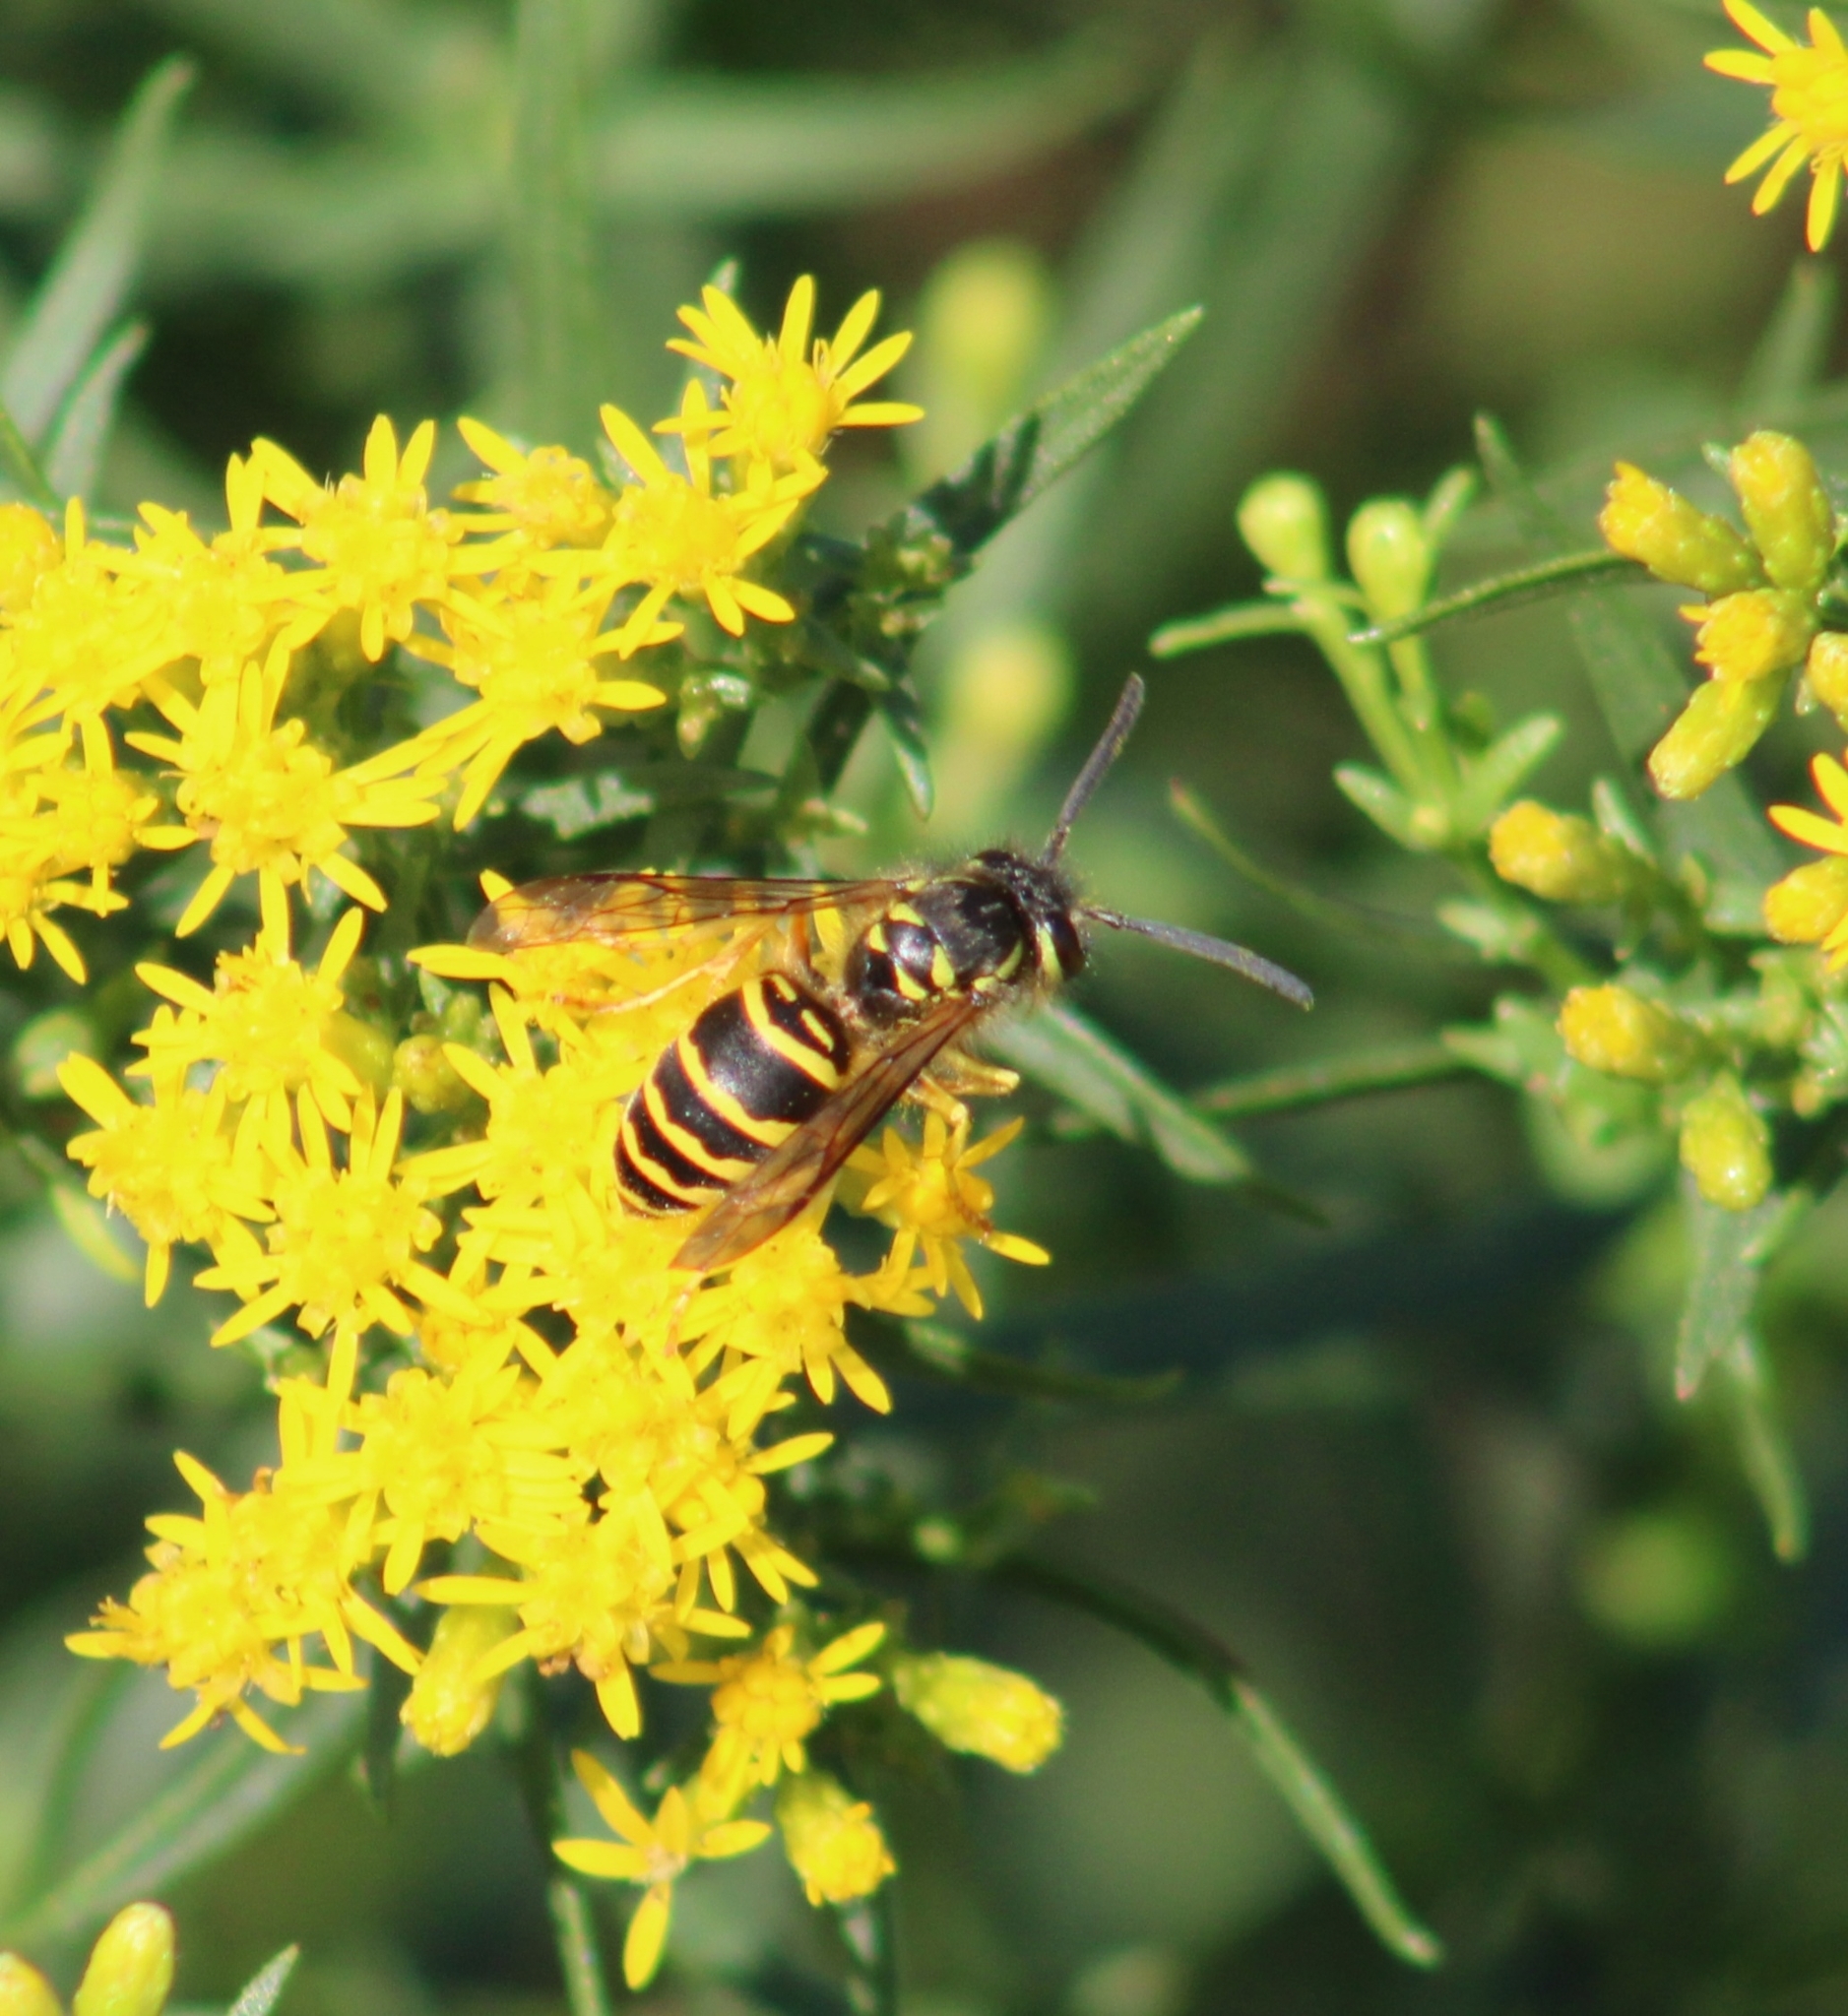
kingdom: Animalia
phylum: Arthropoda
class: Insecta
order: Hymenoptera
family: Vespidae
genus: Vespula
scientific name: Vespula maculifrons
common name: Eastern yellowjacket
